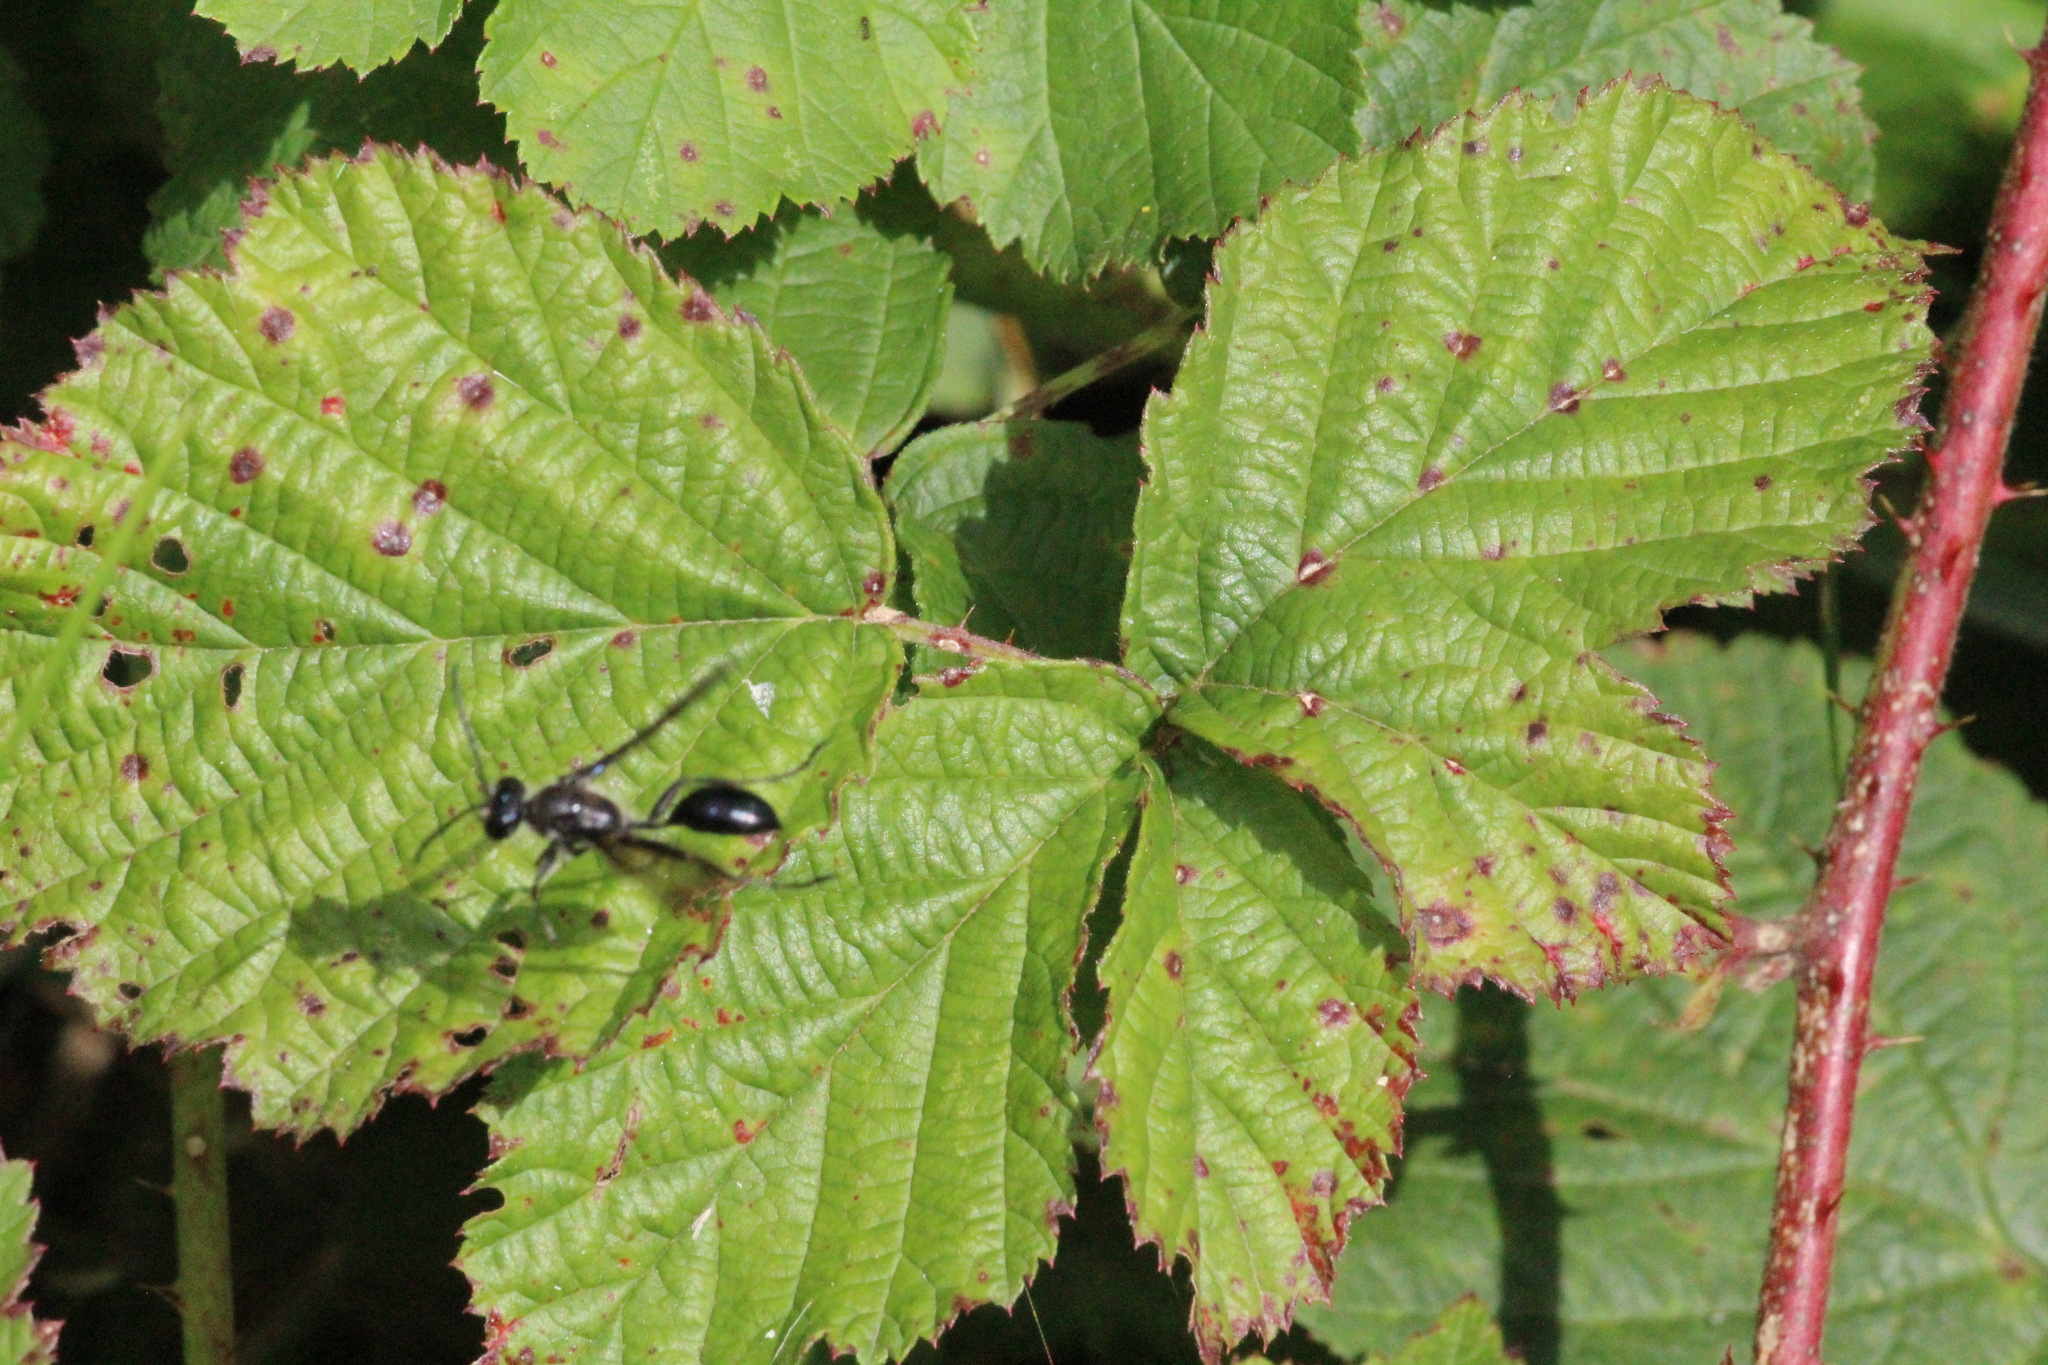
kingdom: Animalia
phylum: Arthropoda
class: Insecta
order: Hymenoptera
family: Sphecidae
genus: Isodontia
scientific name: Isodontia mexicana
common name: Mud dauber
